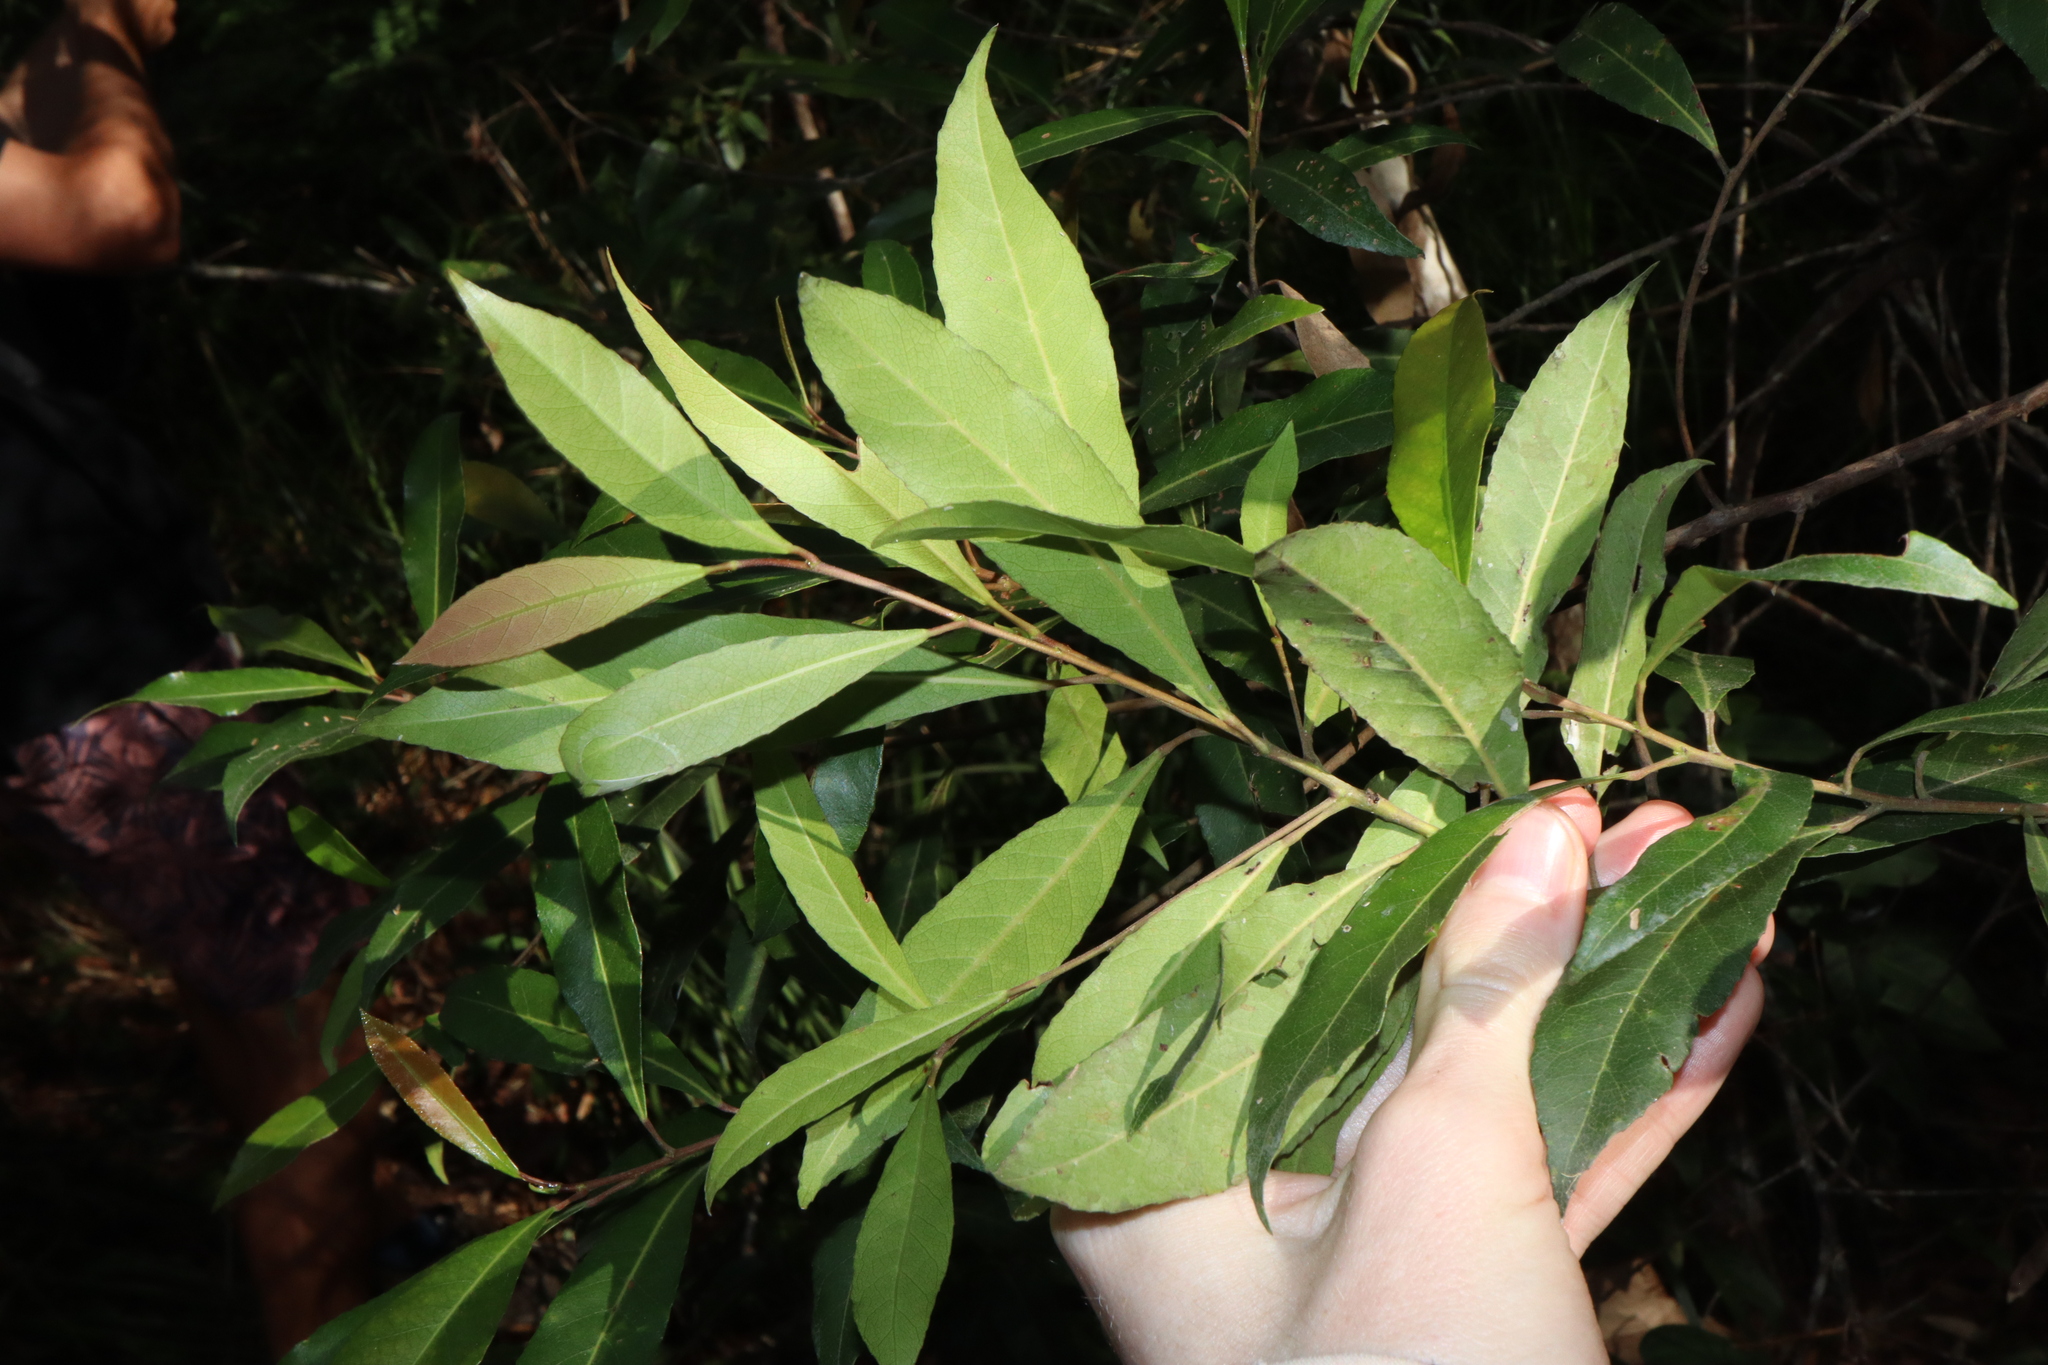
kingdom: Plantae
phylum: Tracheophyta
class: Magnoliopsida
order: Oxalidales
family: Elaeocarpaceae
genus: Elaeocarpus
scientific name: Elaeocarpus reticulatus
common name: Ash quandong
